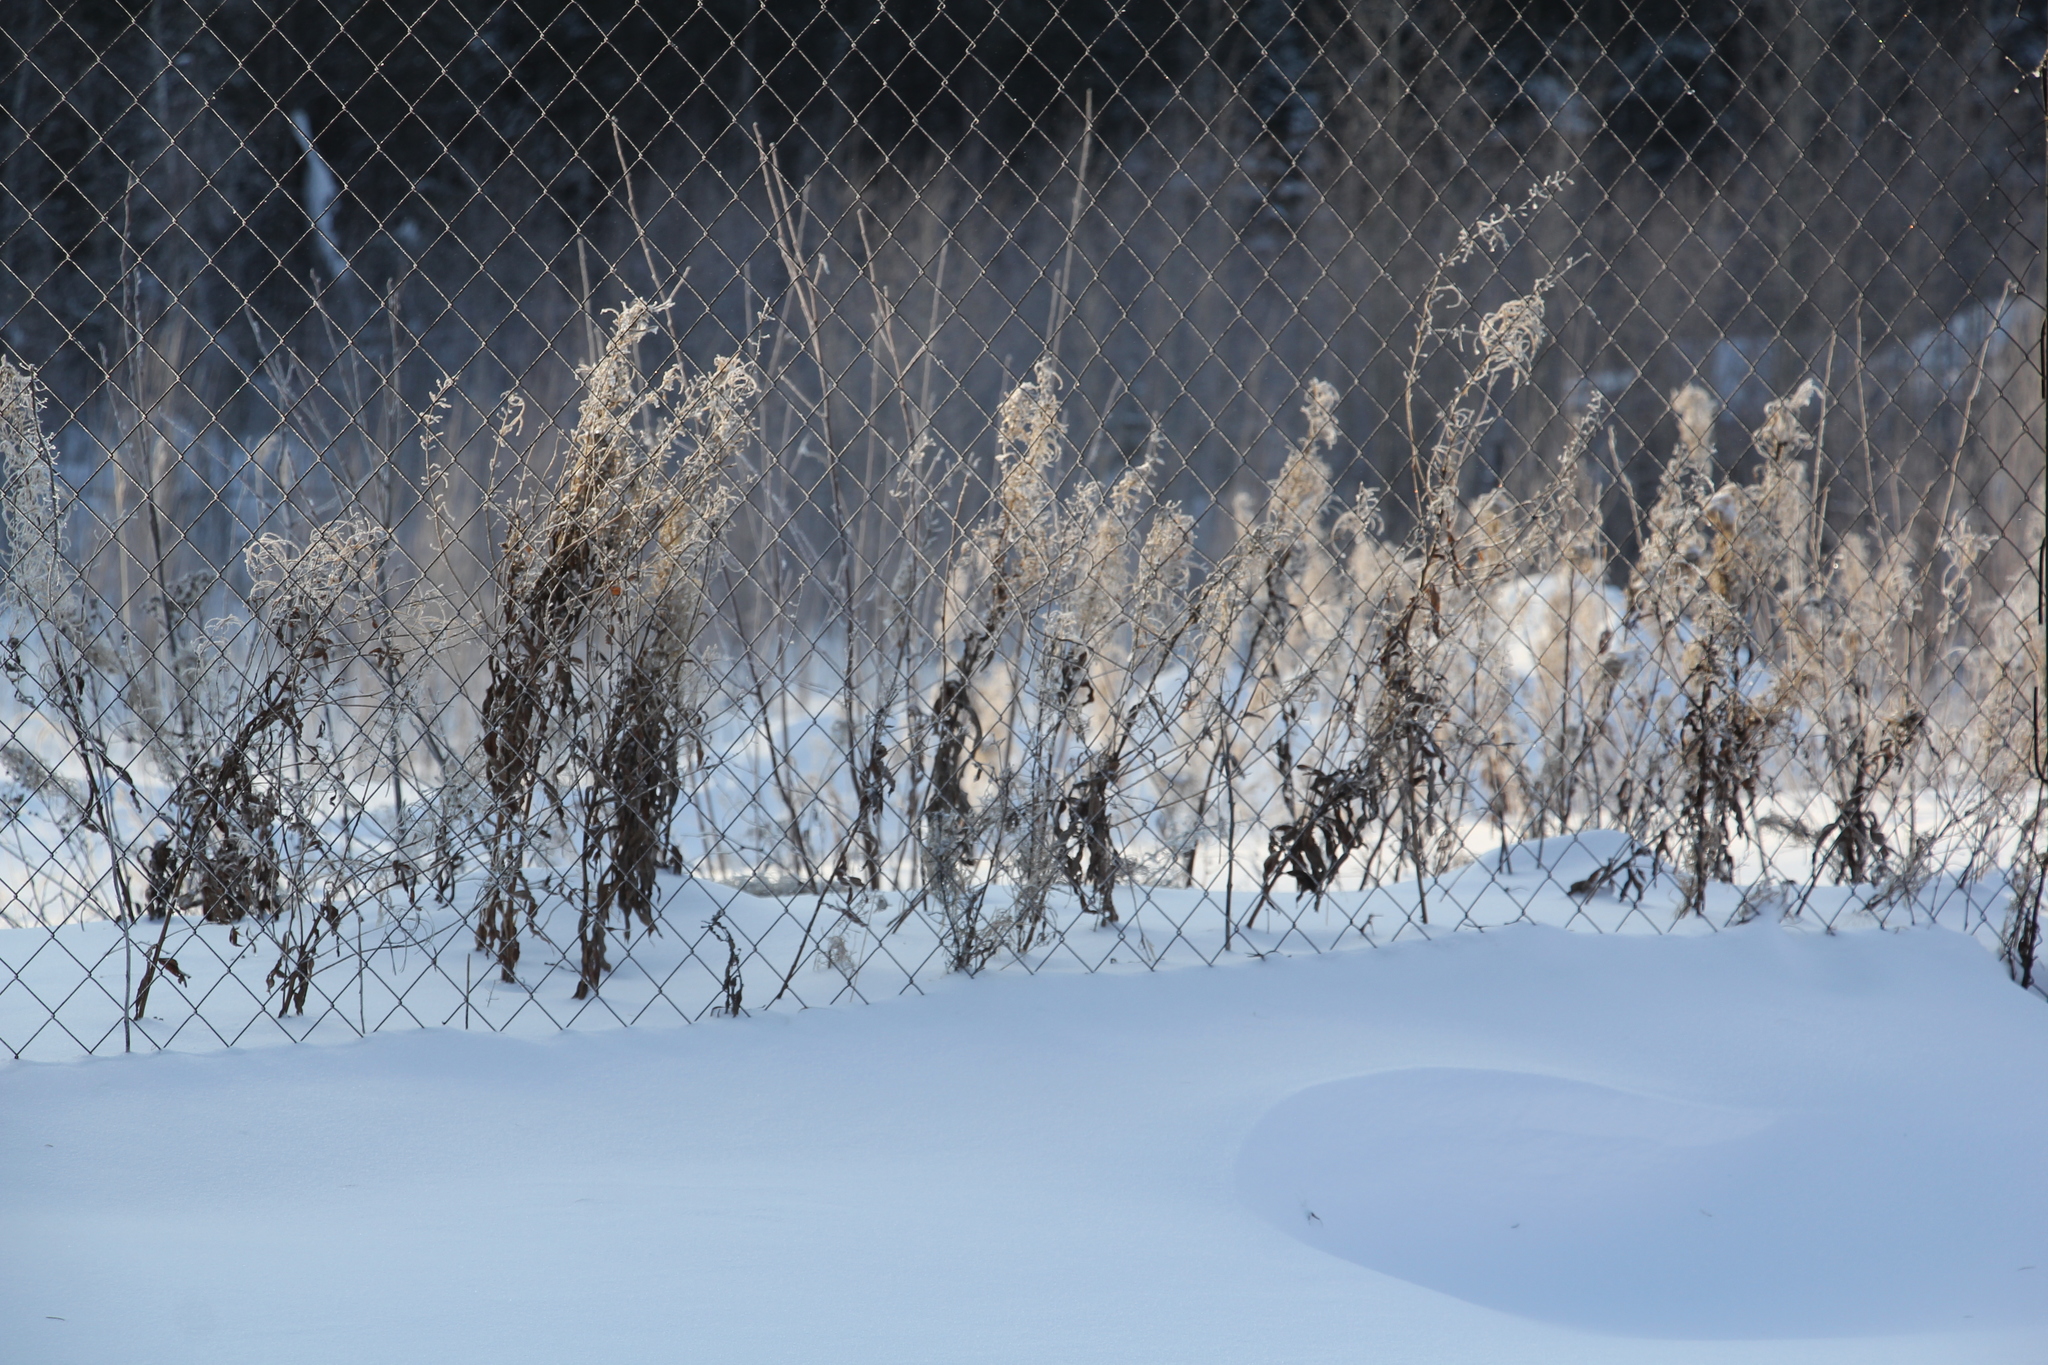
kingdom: Plantae
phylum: Tracheophyta
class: Magnoliopsida
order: Myrtales
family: Onagraceae
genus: Chamaenerion
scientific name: Chamaenerion angustifolium
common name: Fireweed
